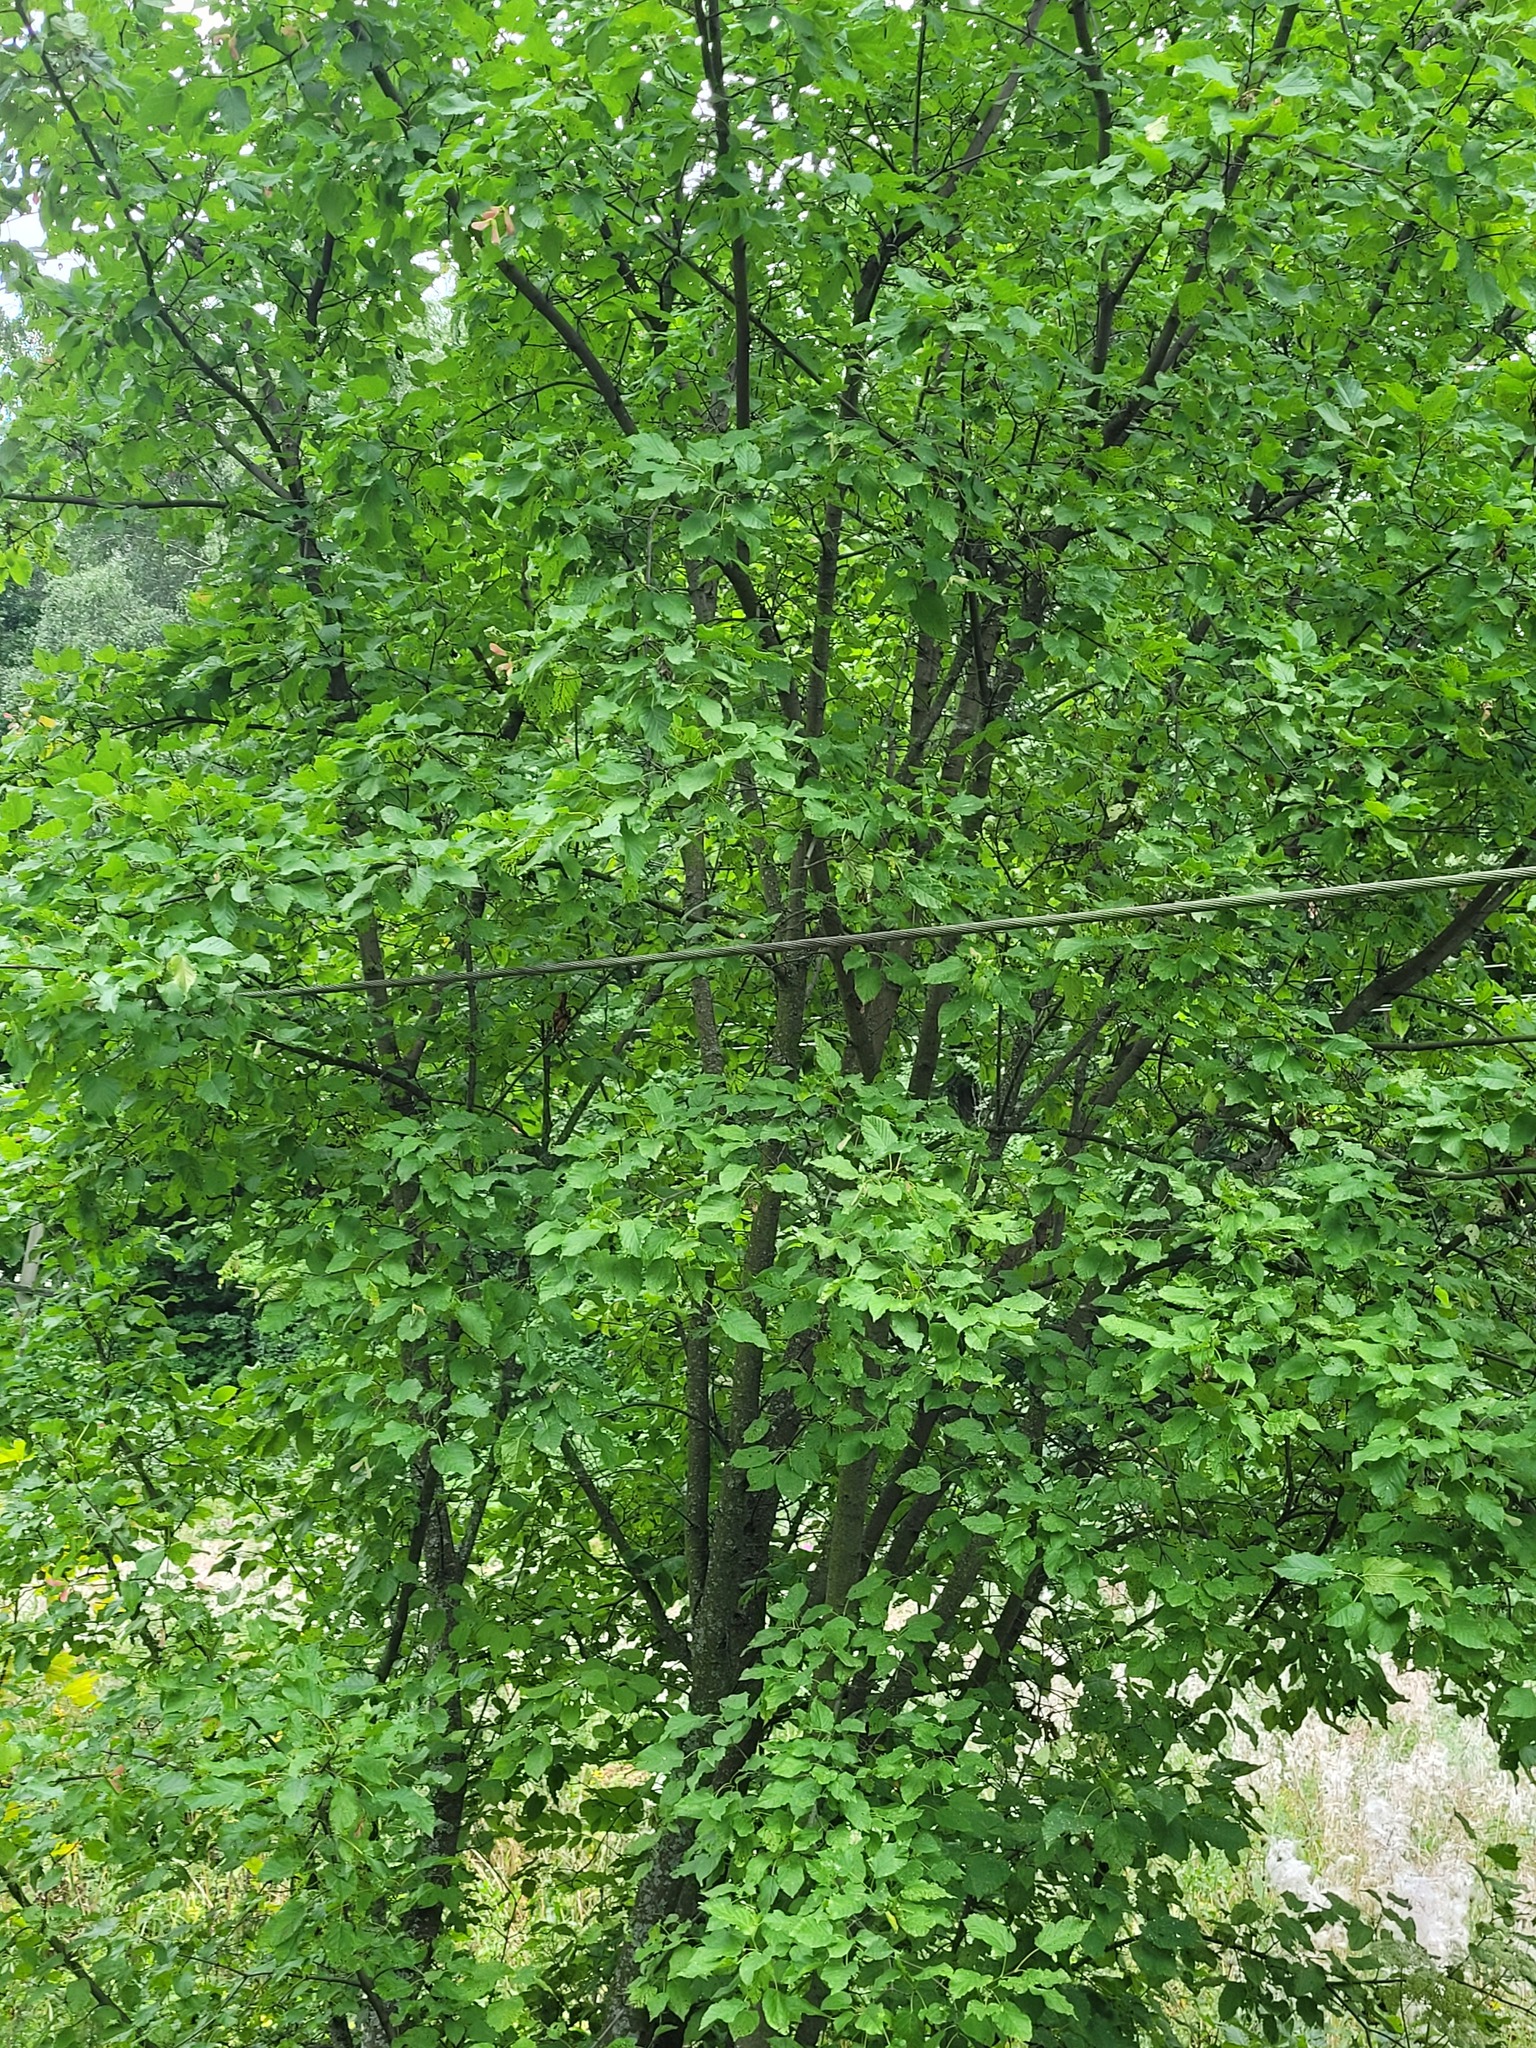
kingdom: Plantae
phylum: Tracheophyta
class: Magnoliopsida
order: Sapindales
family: Sapindaceae
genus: Acer
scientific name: Acer tataricum
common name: Tartar maple
